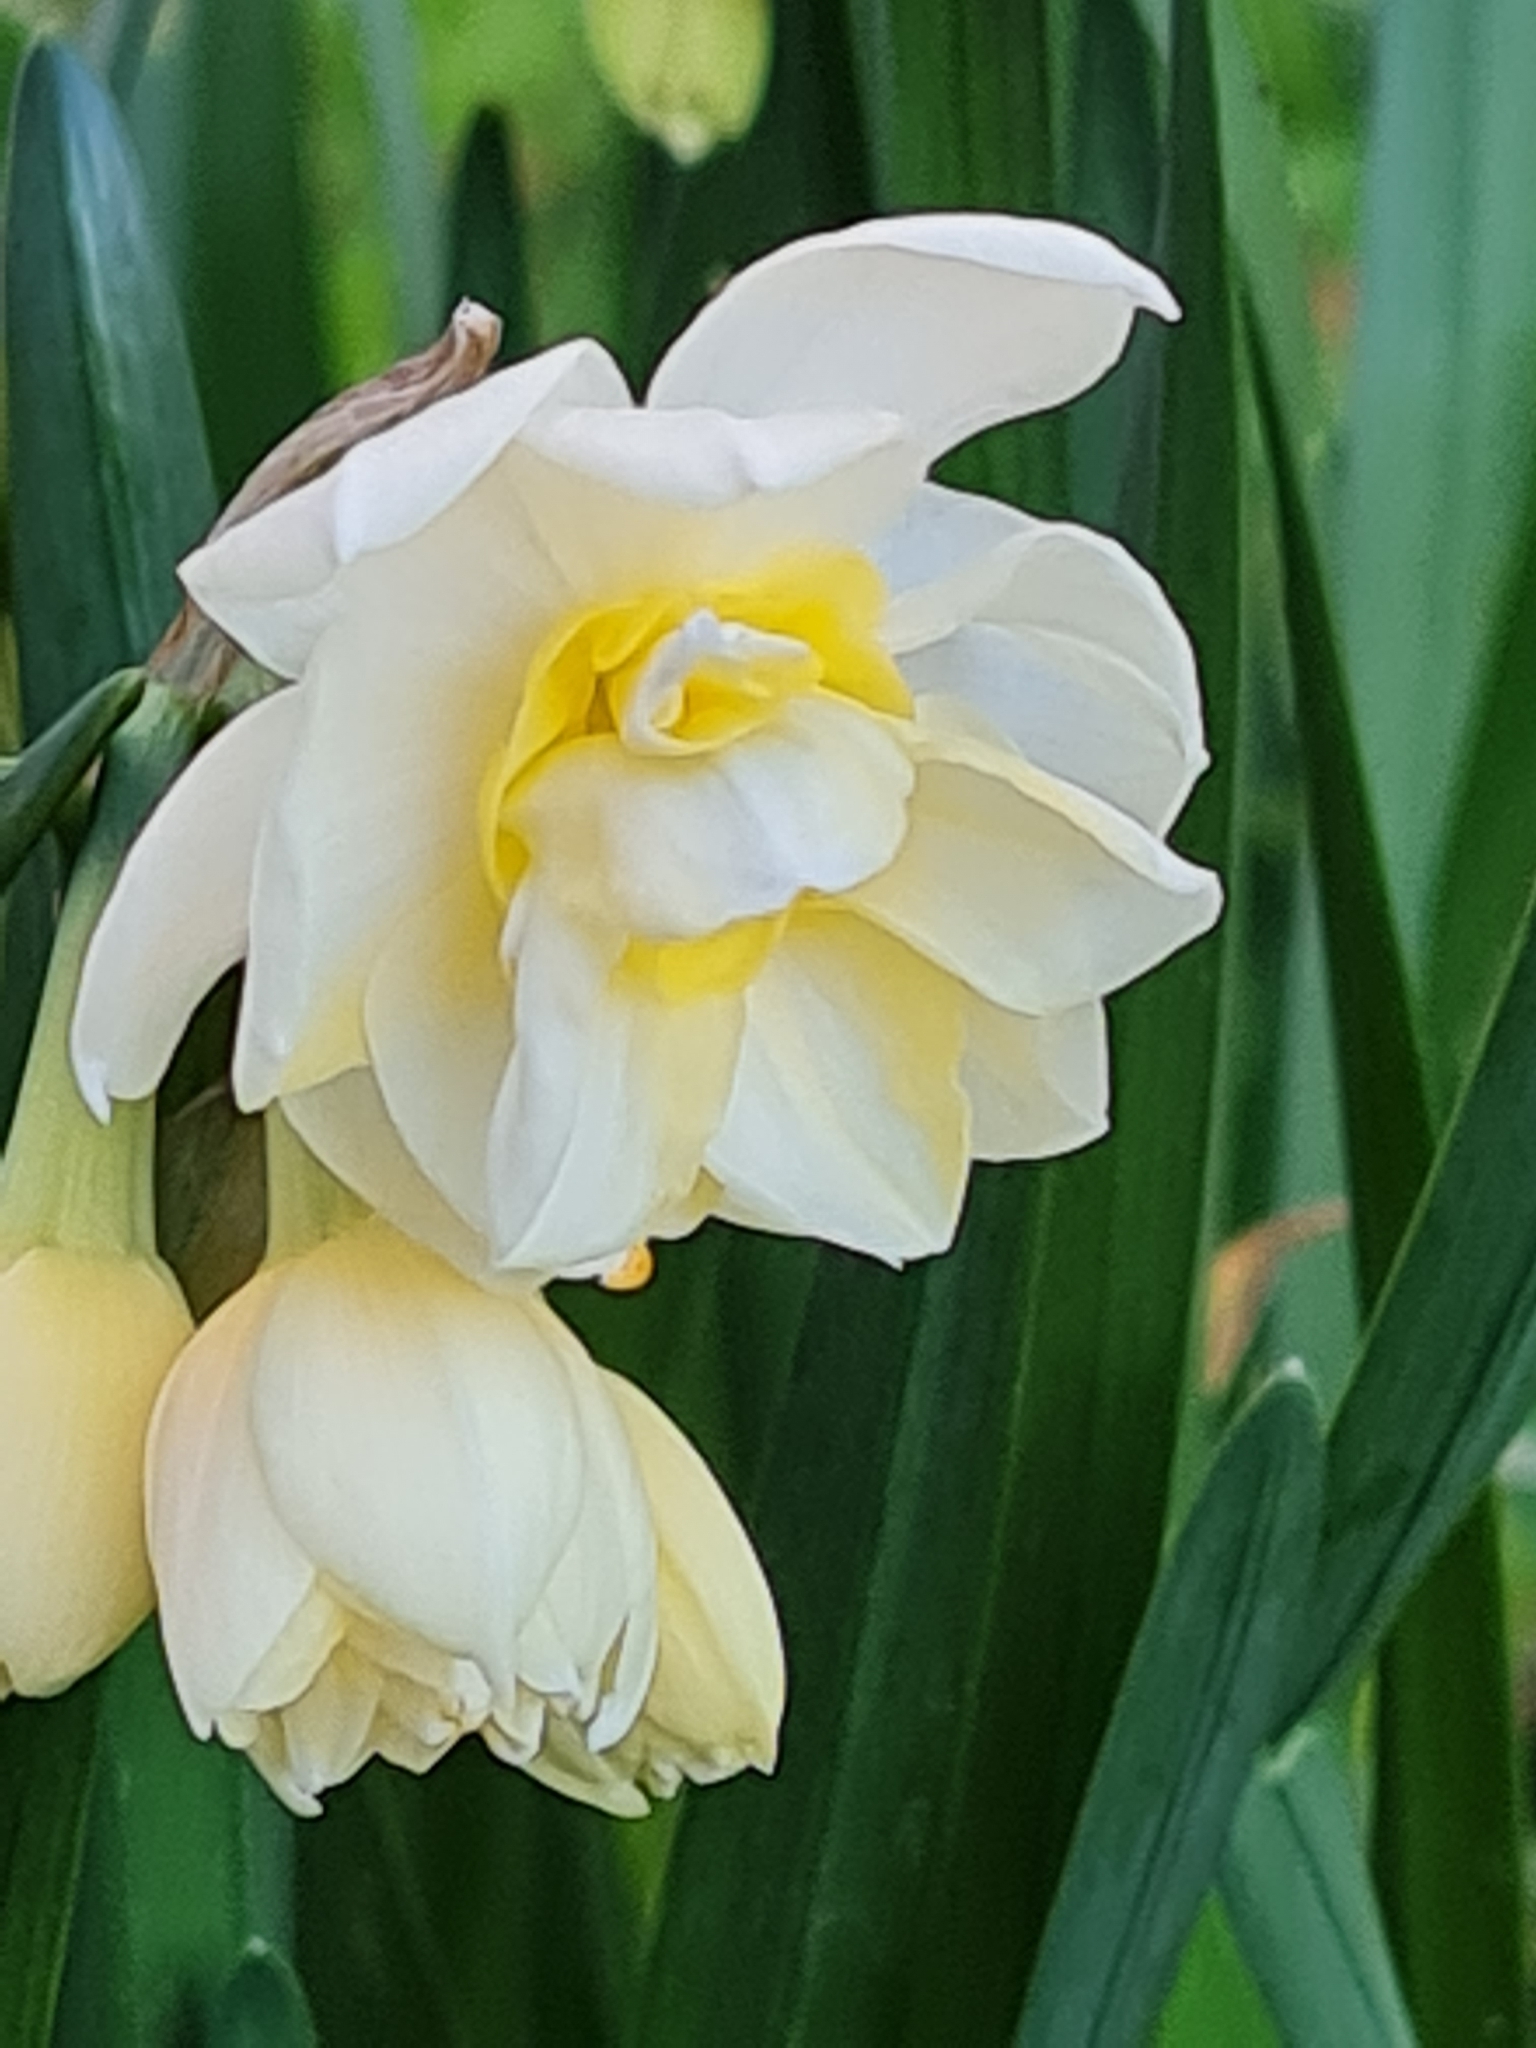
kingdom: Plantae
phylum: Tracheophyta
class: Liliopsida
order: Asparagales
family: Amaryllidaceae
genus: Narcissus
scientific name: Narcissus tazetta
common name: Bunch-flowered daffodil
